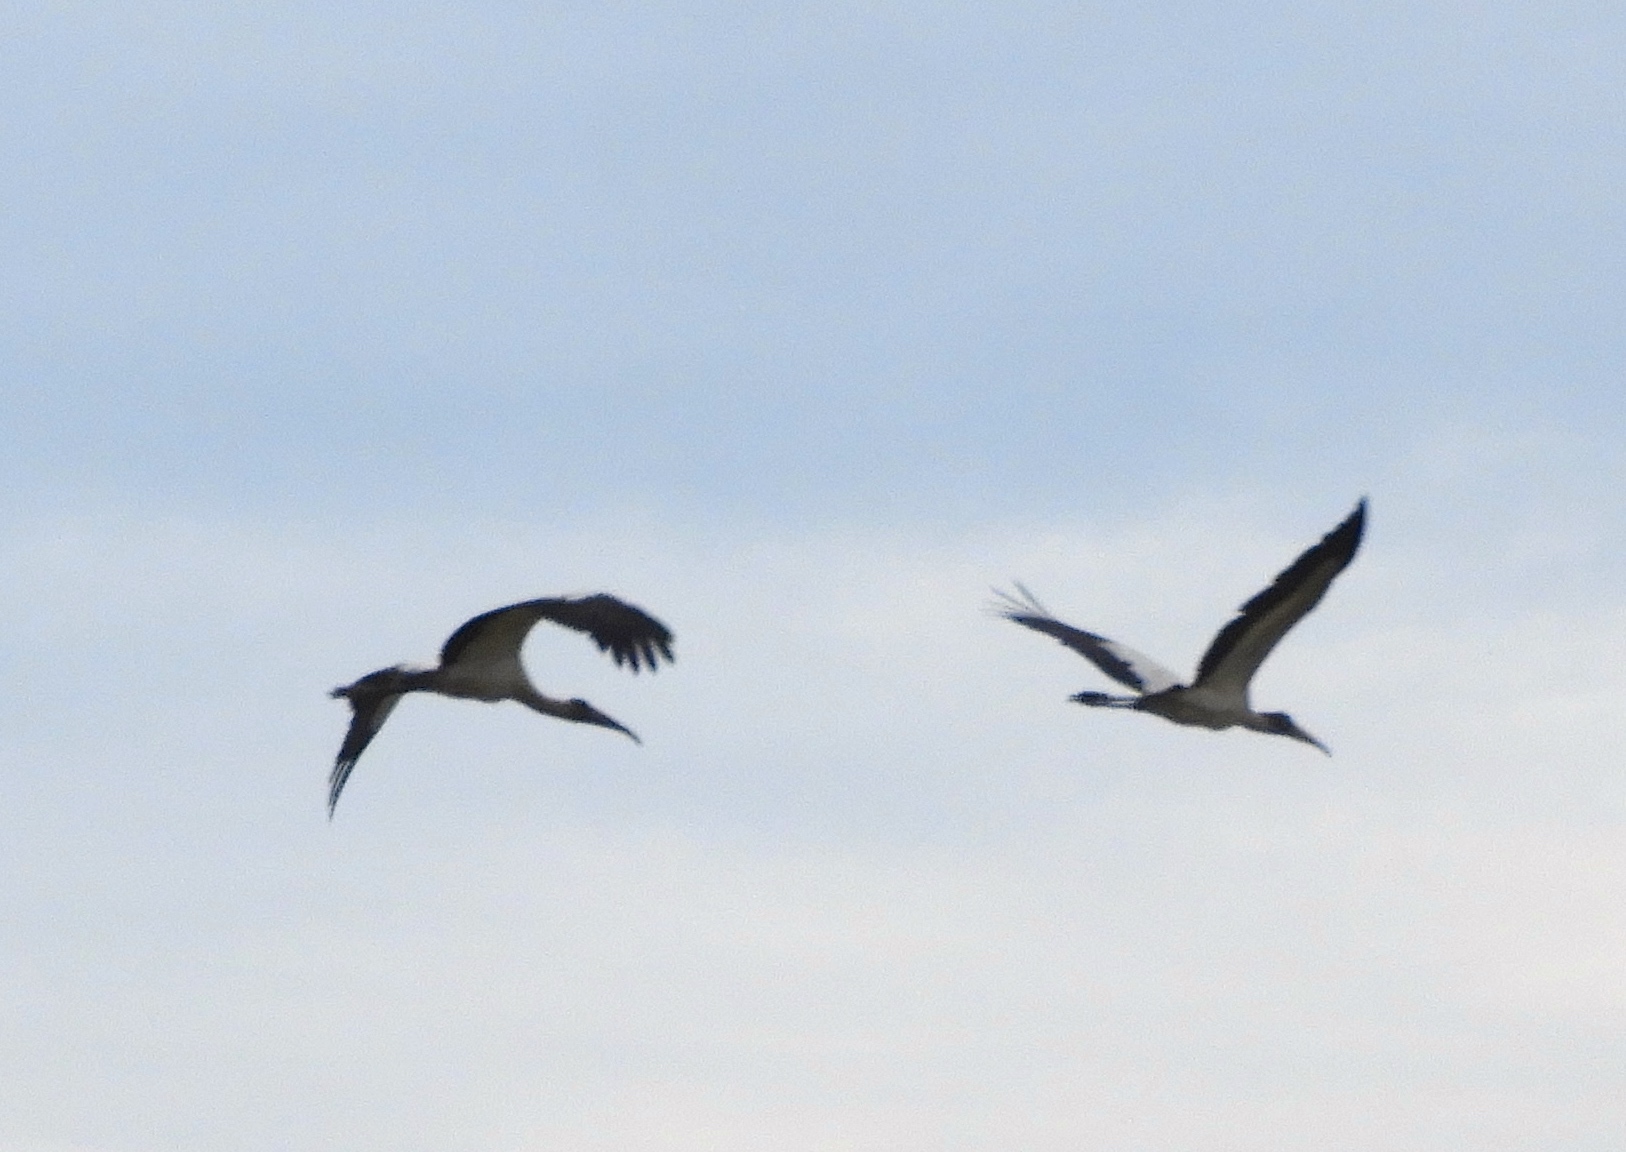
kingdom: Animalia
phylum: Chordata
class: Aves
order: Ciconiiformes
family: Ciconiidae
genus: Mycteria
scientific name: Mycteria americana
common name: Wood stork
